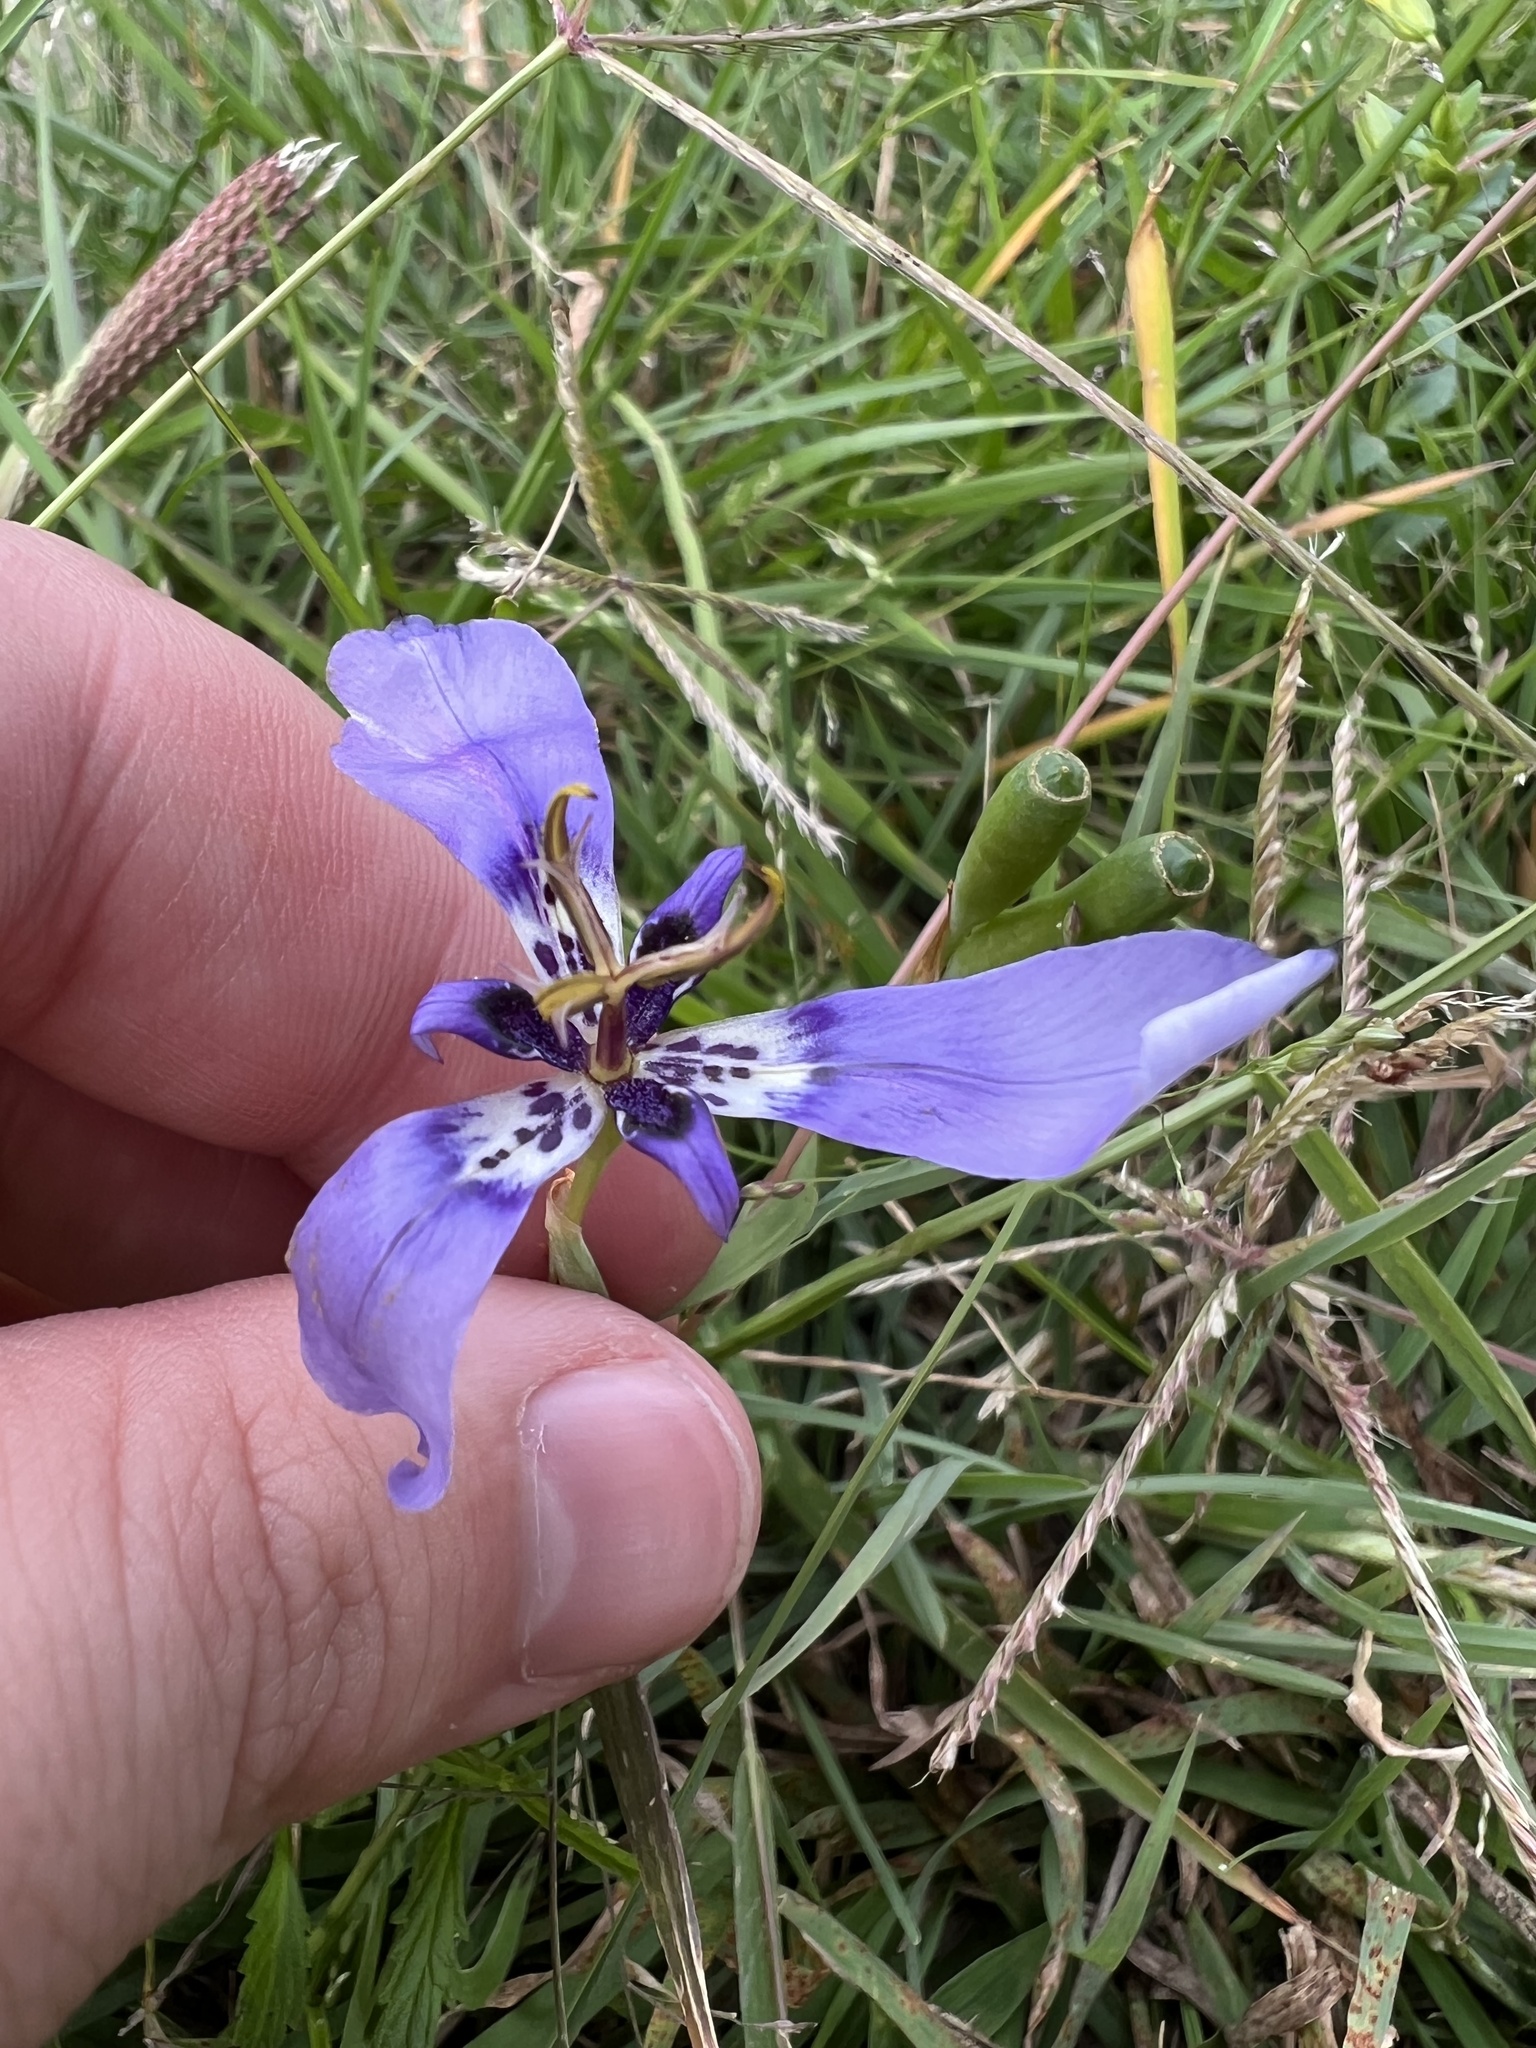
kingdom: Plantae
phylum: Tracheophyta
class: Liliopsida
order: Asparagales
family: Iridaceae
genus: Herbertia
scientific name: Herbertia lahue
